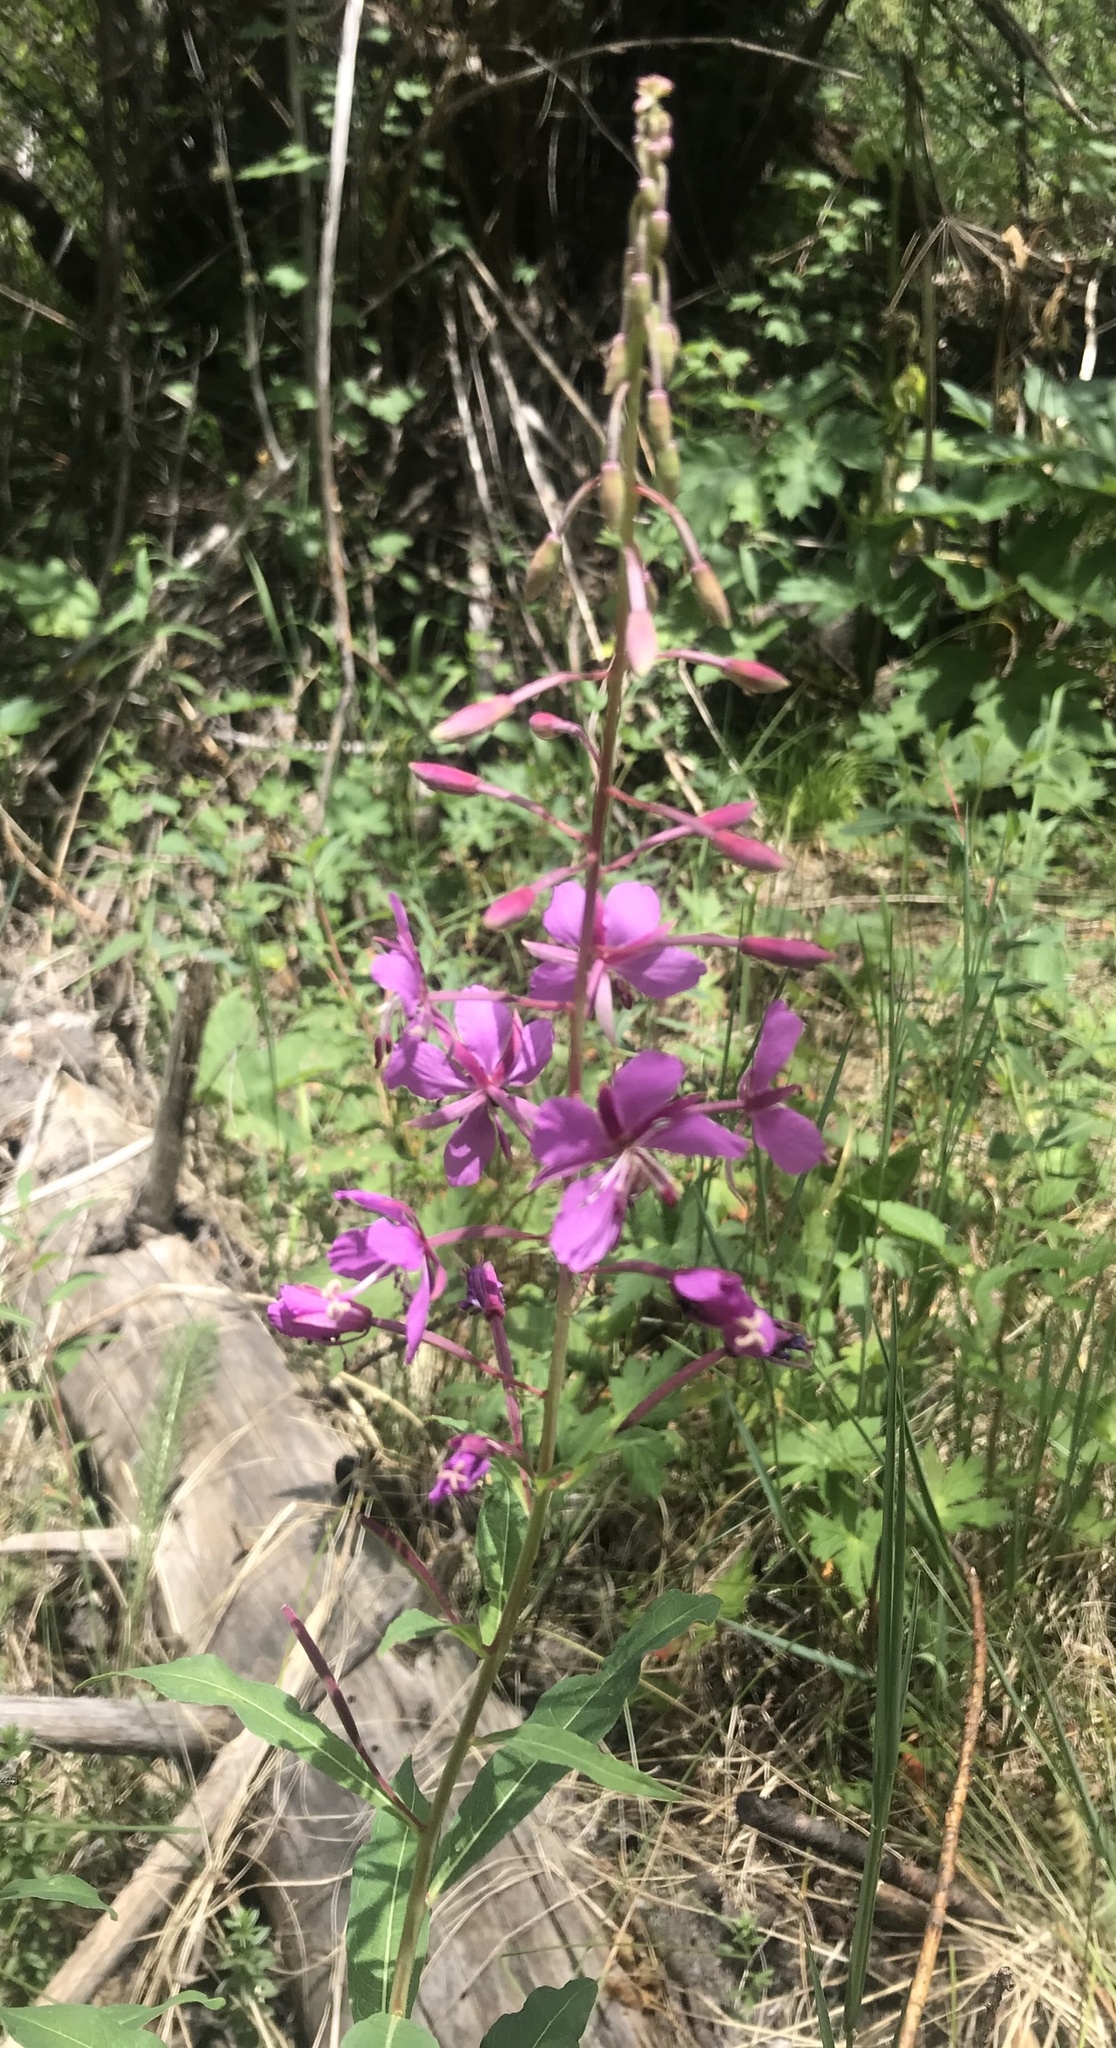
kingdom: Plantae
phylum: Tracheophyta
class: Magnoliopsida
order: Myrtales
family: Onagraceae
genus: Chamaenerion
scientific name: Chamaenerion angustifolium
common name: Fireweed
